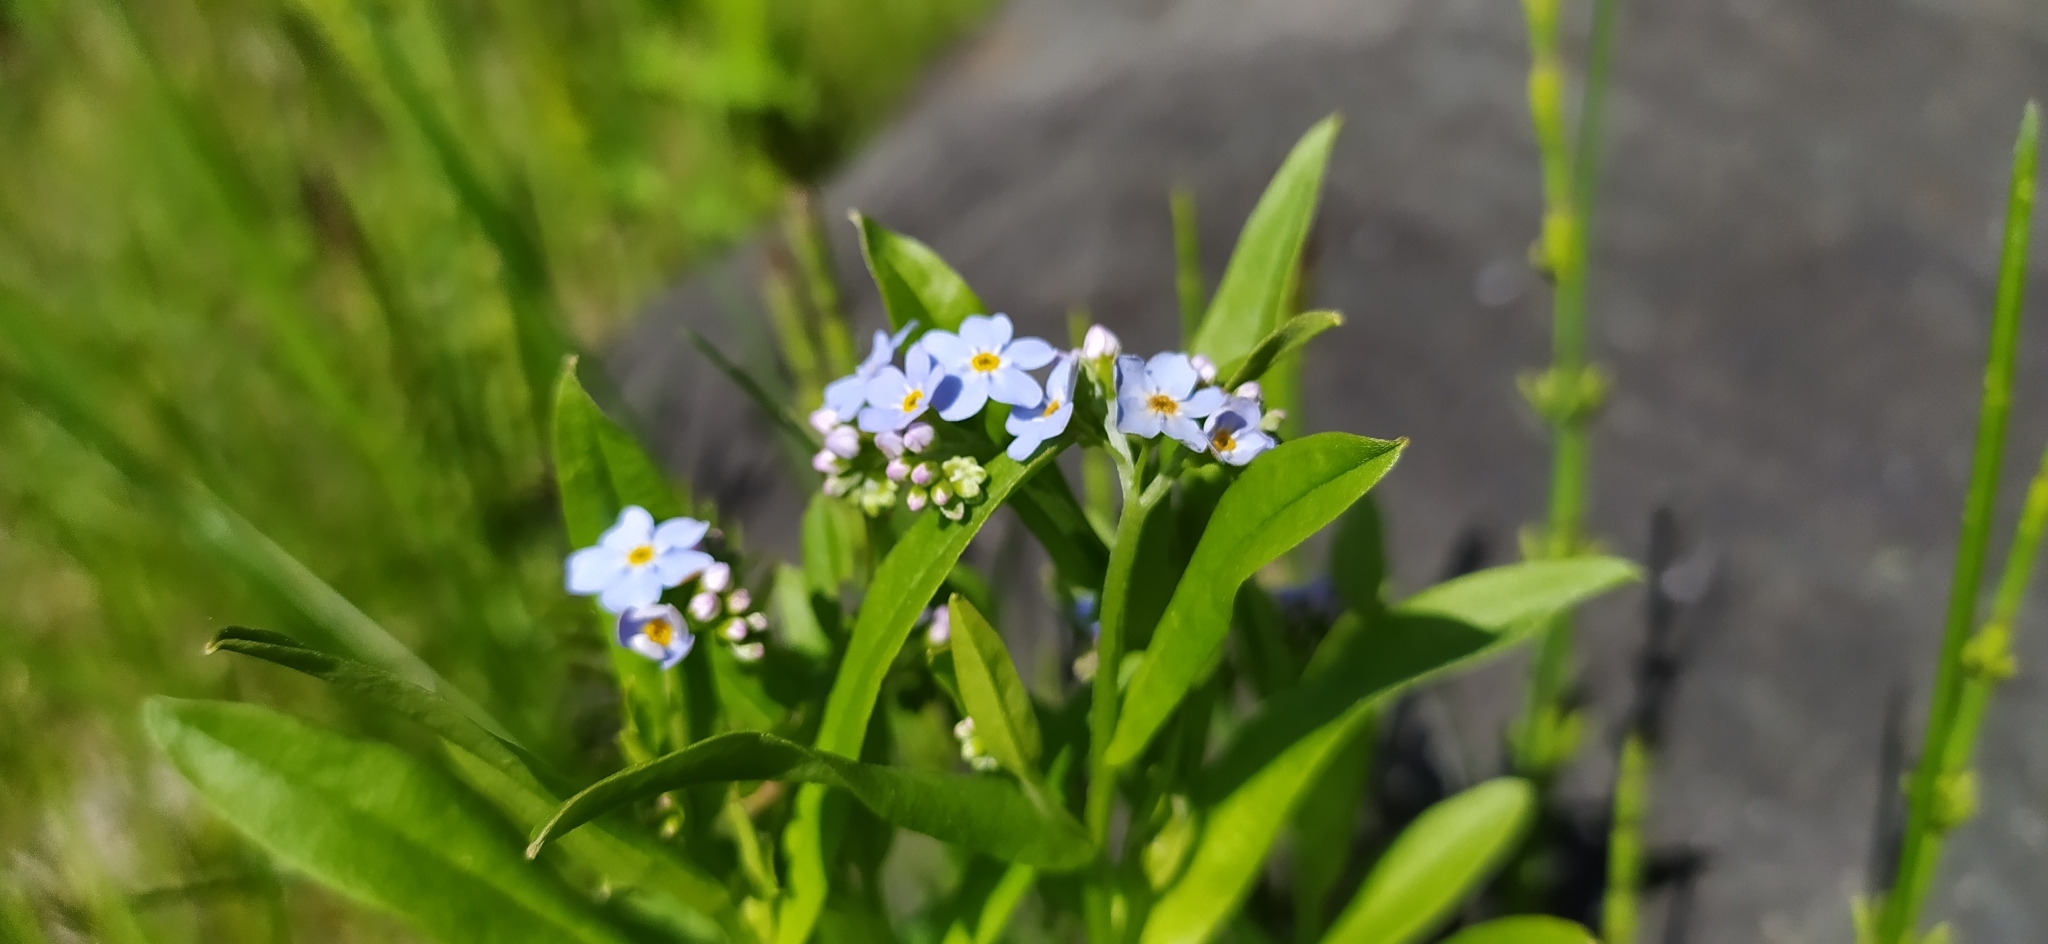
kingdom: Plantae
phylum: Tracheophyta
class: Magnoliopsida
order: Boraginales
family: Boraginaceae
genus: Myosotis
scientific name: Myosotis scorpioides
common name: Water forget-me-not
